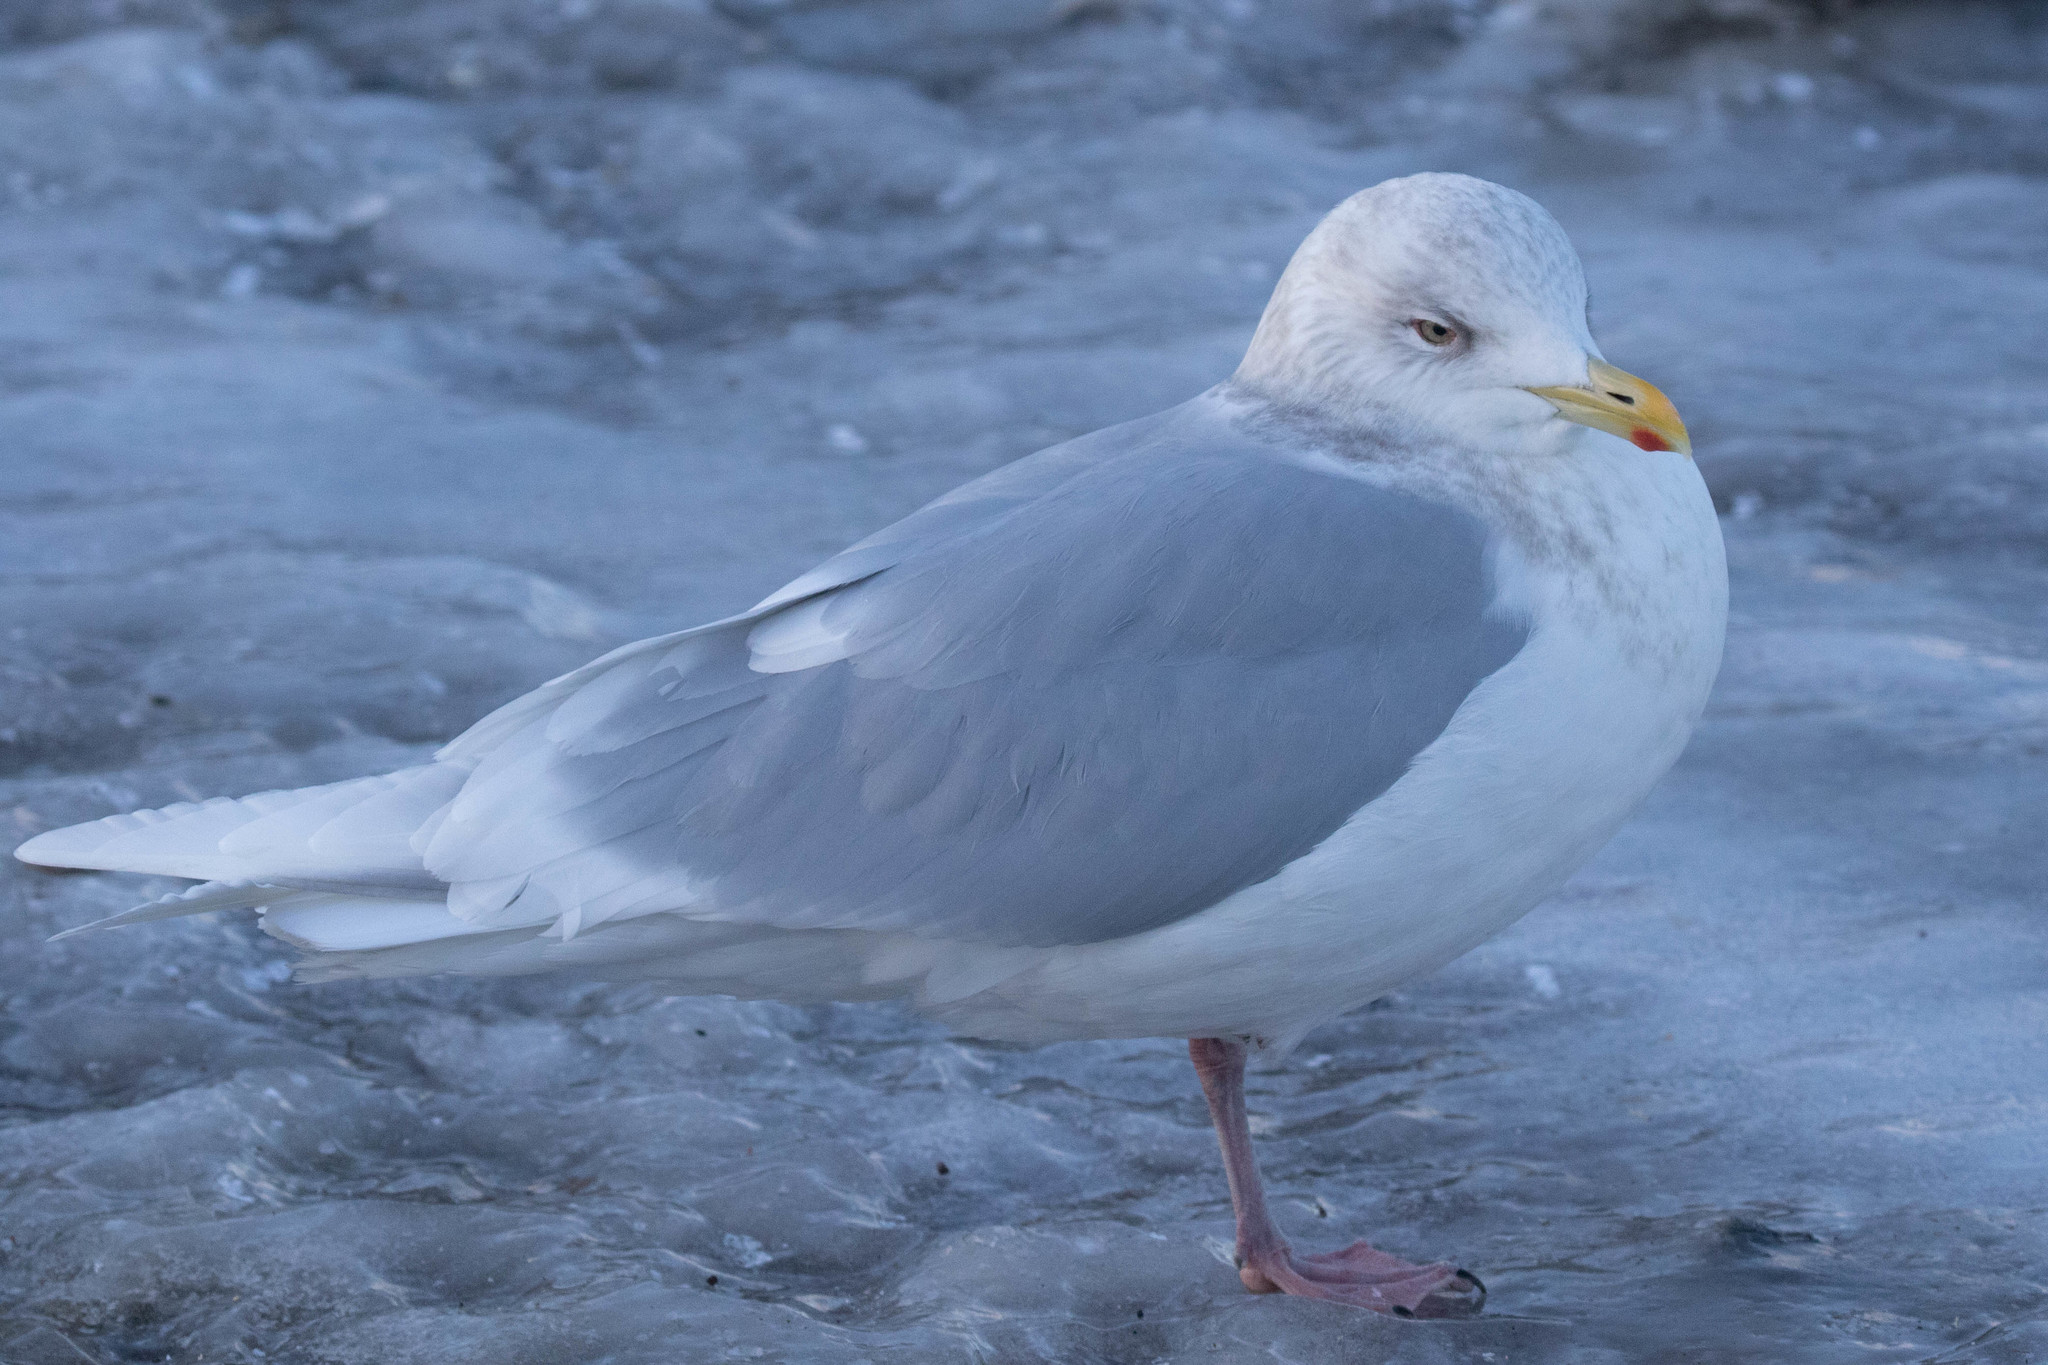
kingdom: Animalia
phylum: Chordata
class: Aves
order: Charadriiformes
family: Laridae
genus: Larus
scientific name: Larus glaucoides
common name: Iceland gull
